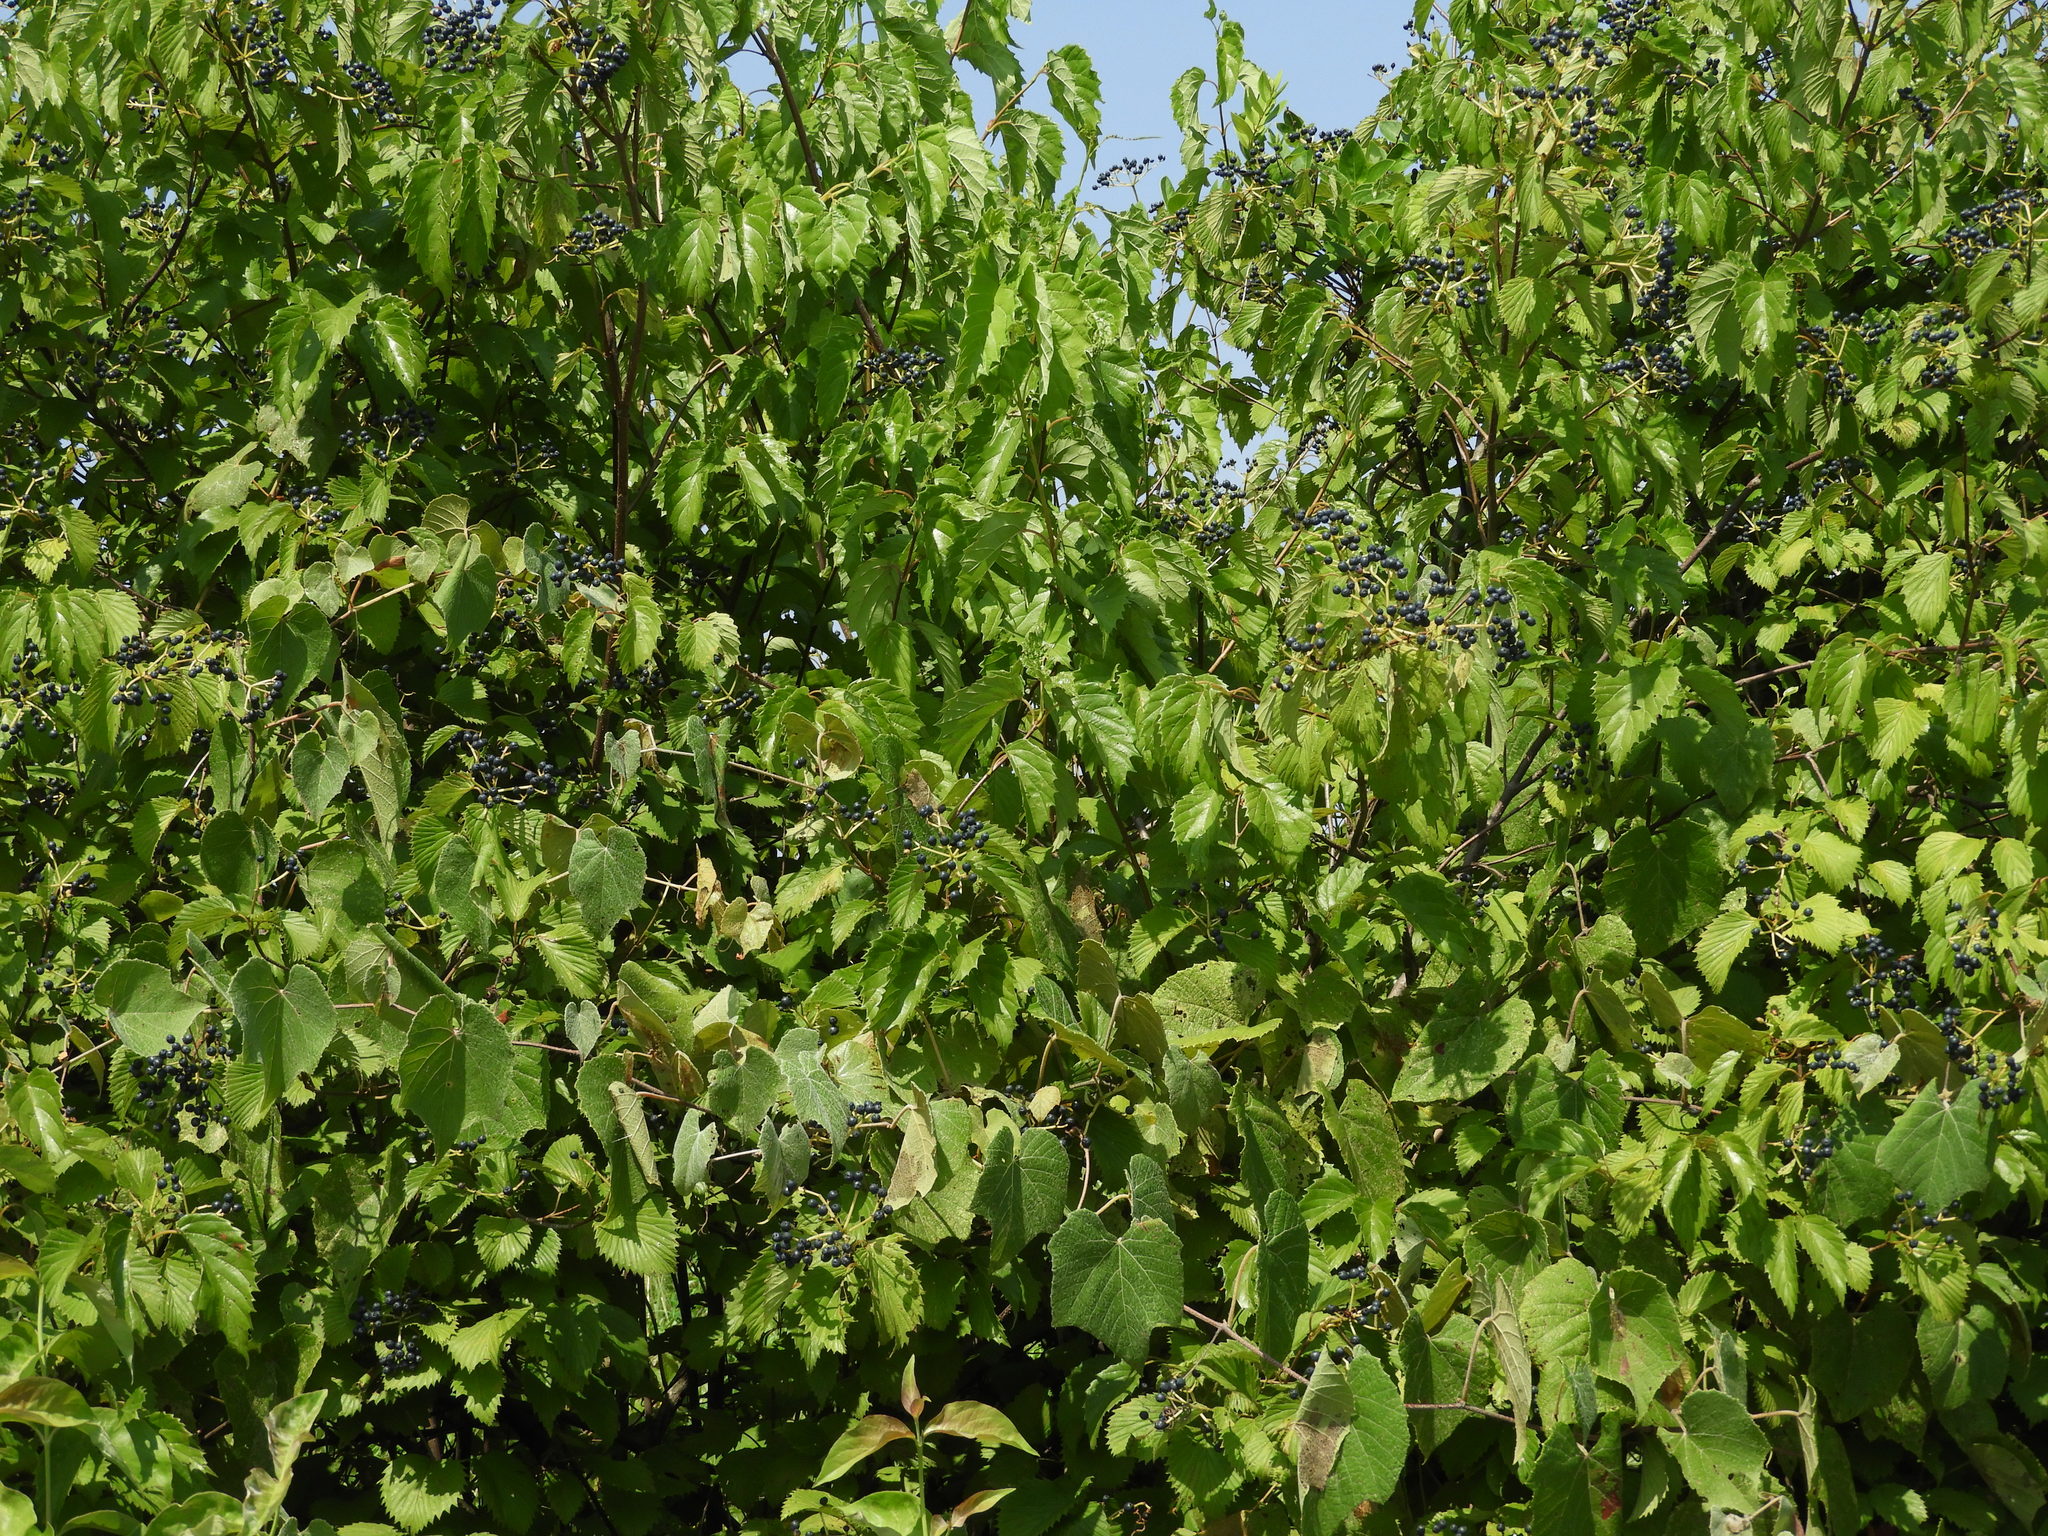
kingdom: Plantae
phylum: Tracheophyta
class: Magnoliopsida
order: Dipsacales
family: Viburnaceae
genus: Viburnum
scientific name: Viburnum recognitum
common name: Northern arrow-wood
